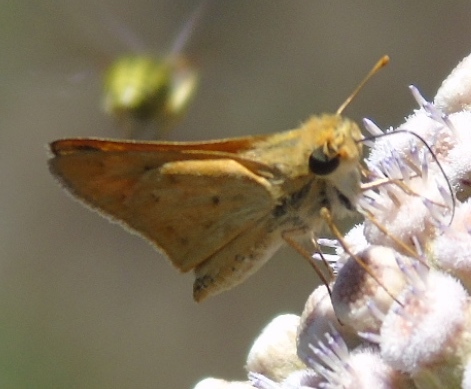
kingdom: Animalia
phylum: Arthropoda
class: Insecta
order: Lepidoptera
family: Hesperiidae
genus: Hylephila
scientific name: Hylephila phyleus
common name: Fiery skipper
